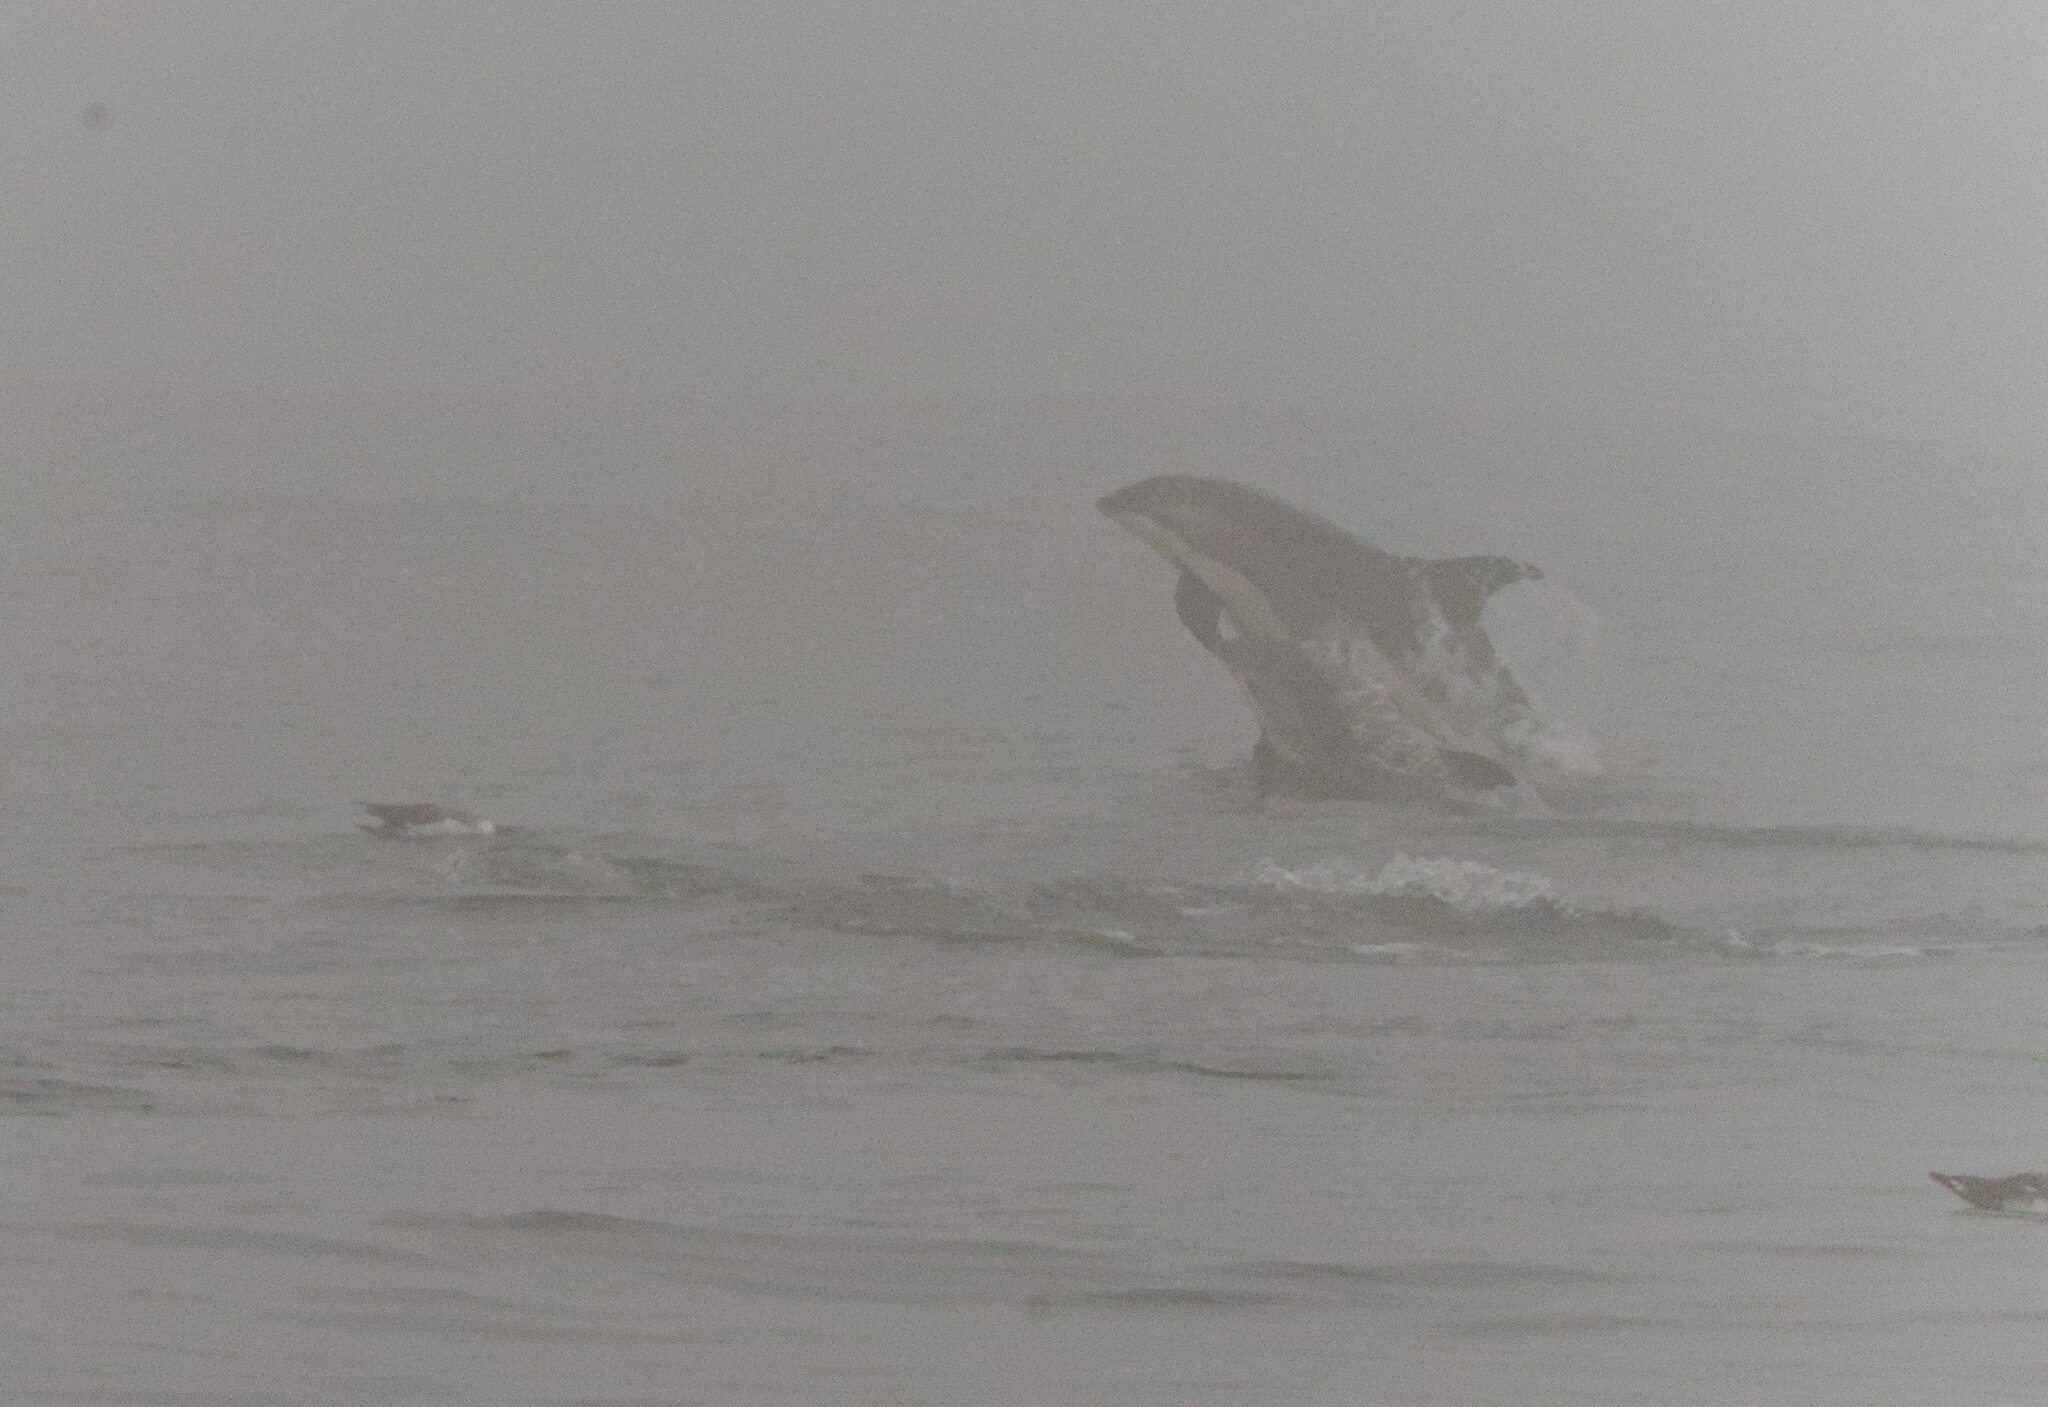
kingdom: Animalia
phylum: Chordata
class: Mammalia
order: Cetacea
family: Delphinidae
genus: Lagenorhynchus
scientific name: Lagenorhynchus acutus
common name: Atlantic white-sided dolphin
